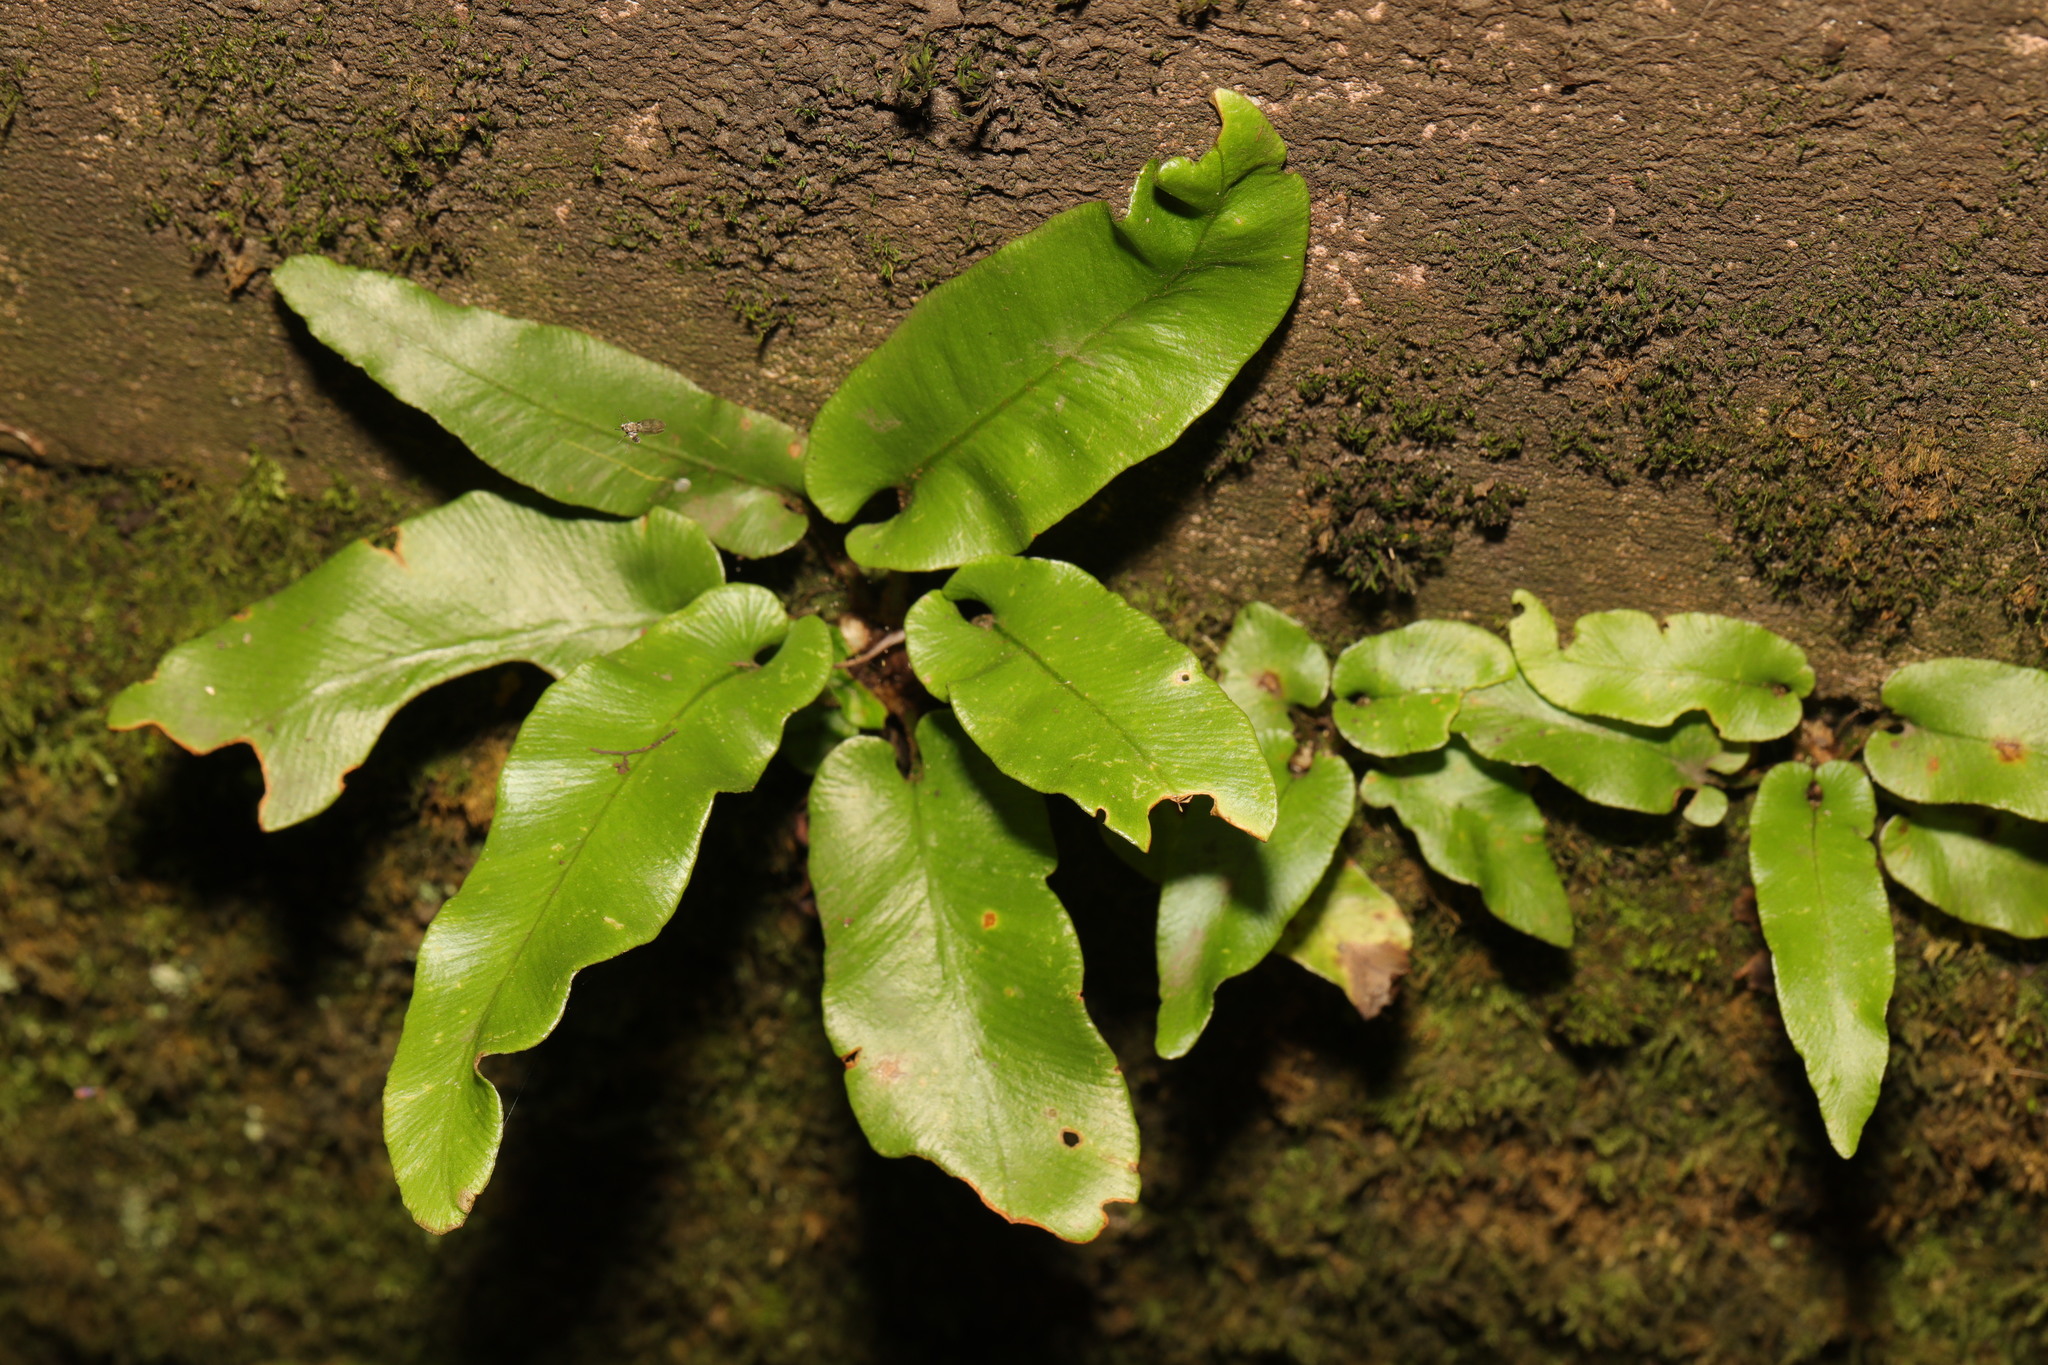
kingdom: Plantae
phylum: Tracheophyta
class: Polypodiopsida
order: Polypodiales
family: Aspleniaceae
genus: Asplenium
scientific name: Asplenium scolopendrium
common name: Hart's-tongue fern
